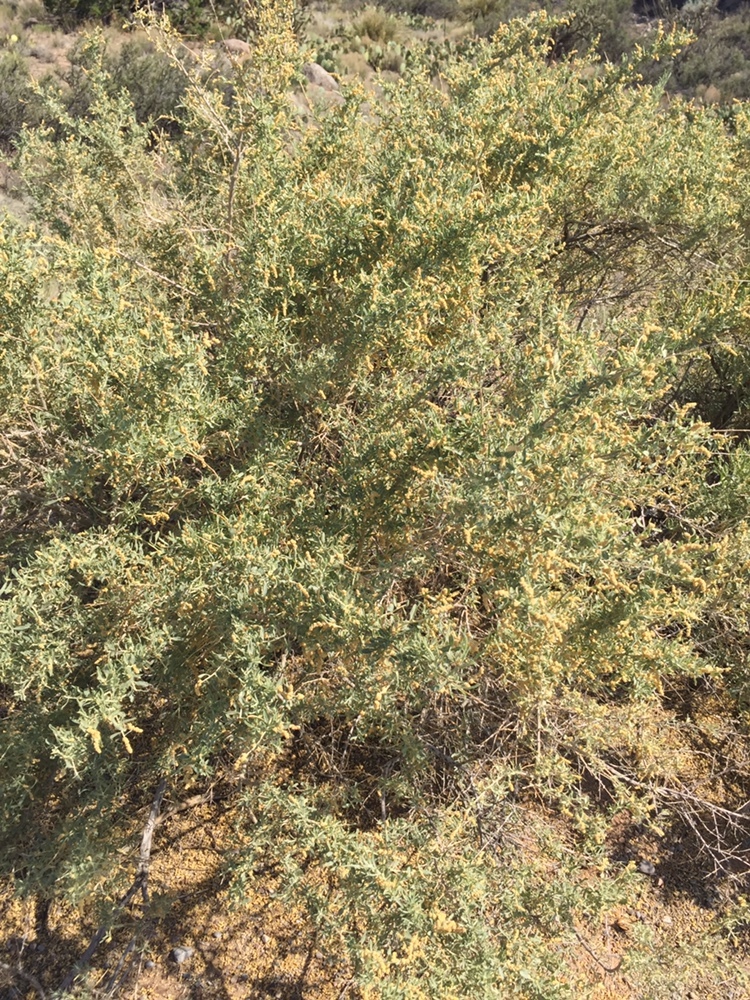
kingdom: Plantae
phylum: Tracheophyta
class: Magnoliopsida
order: Caryophyllales
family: Amaranthaceae
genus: Atriplex
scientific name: Atriplex canescens
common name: Four-wing saltbush
